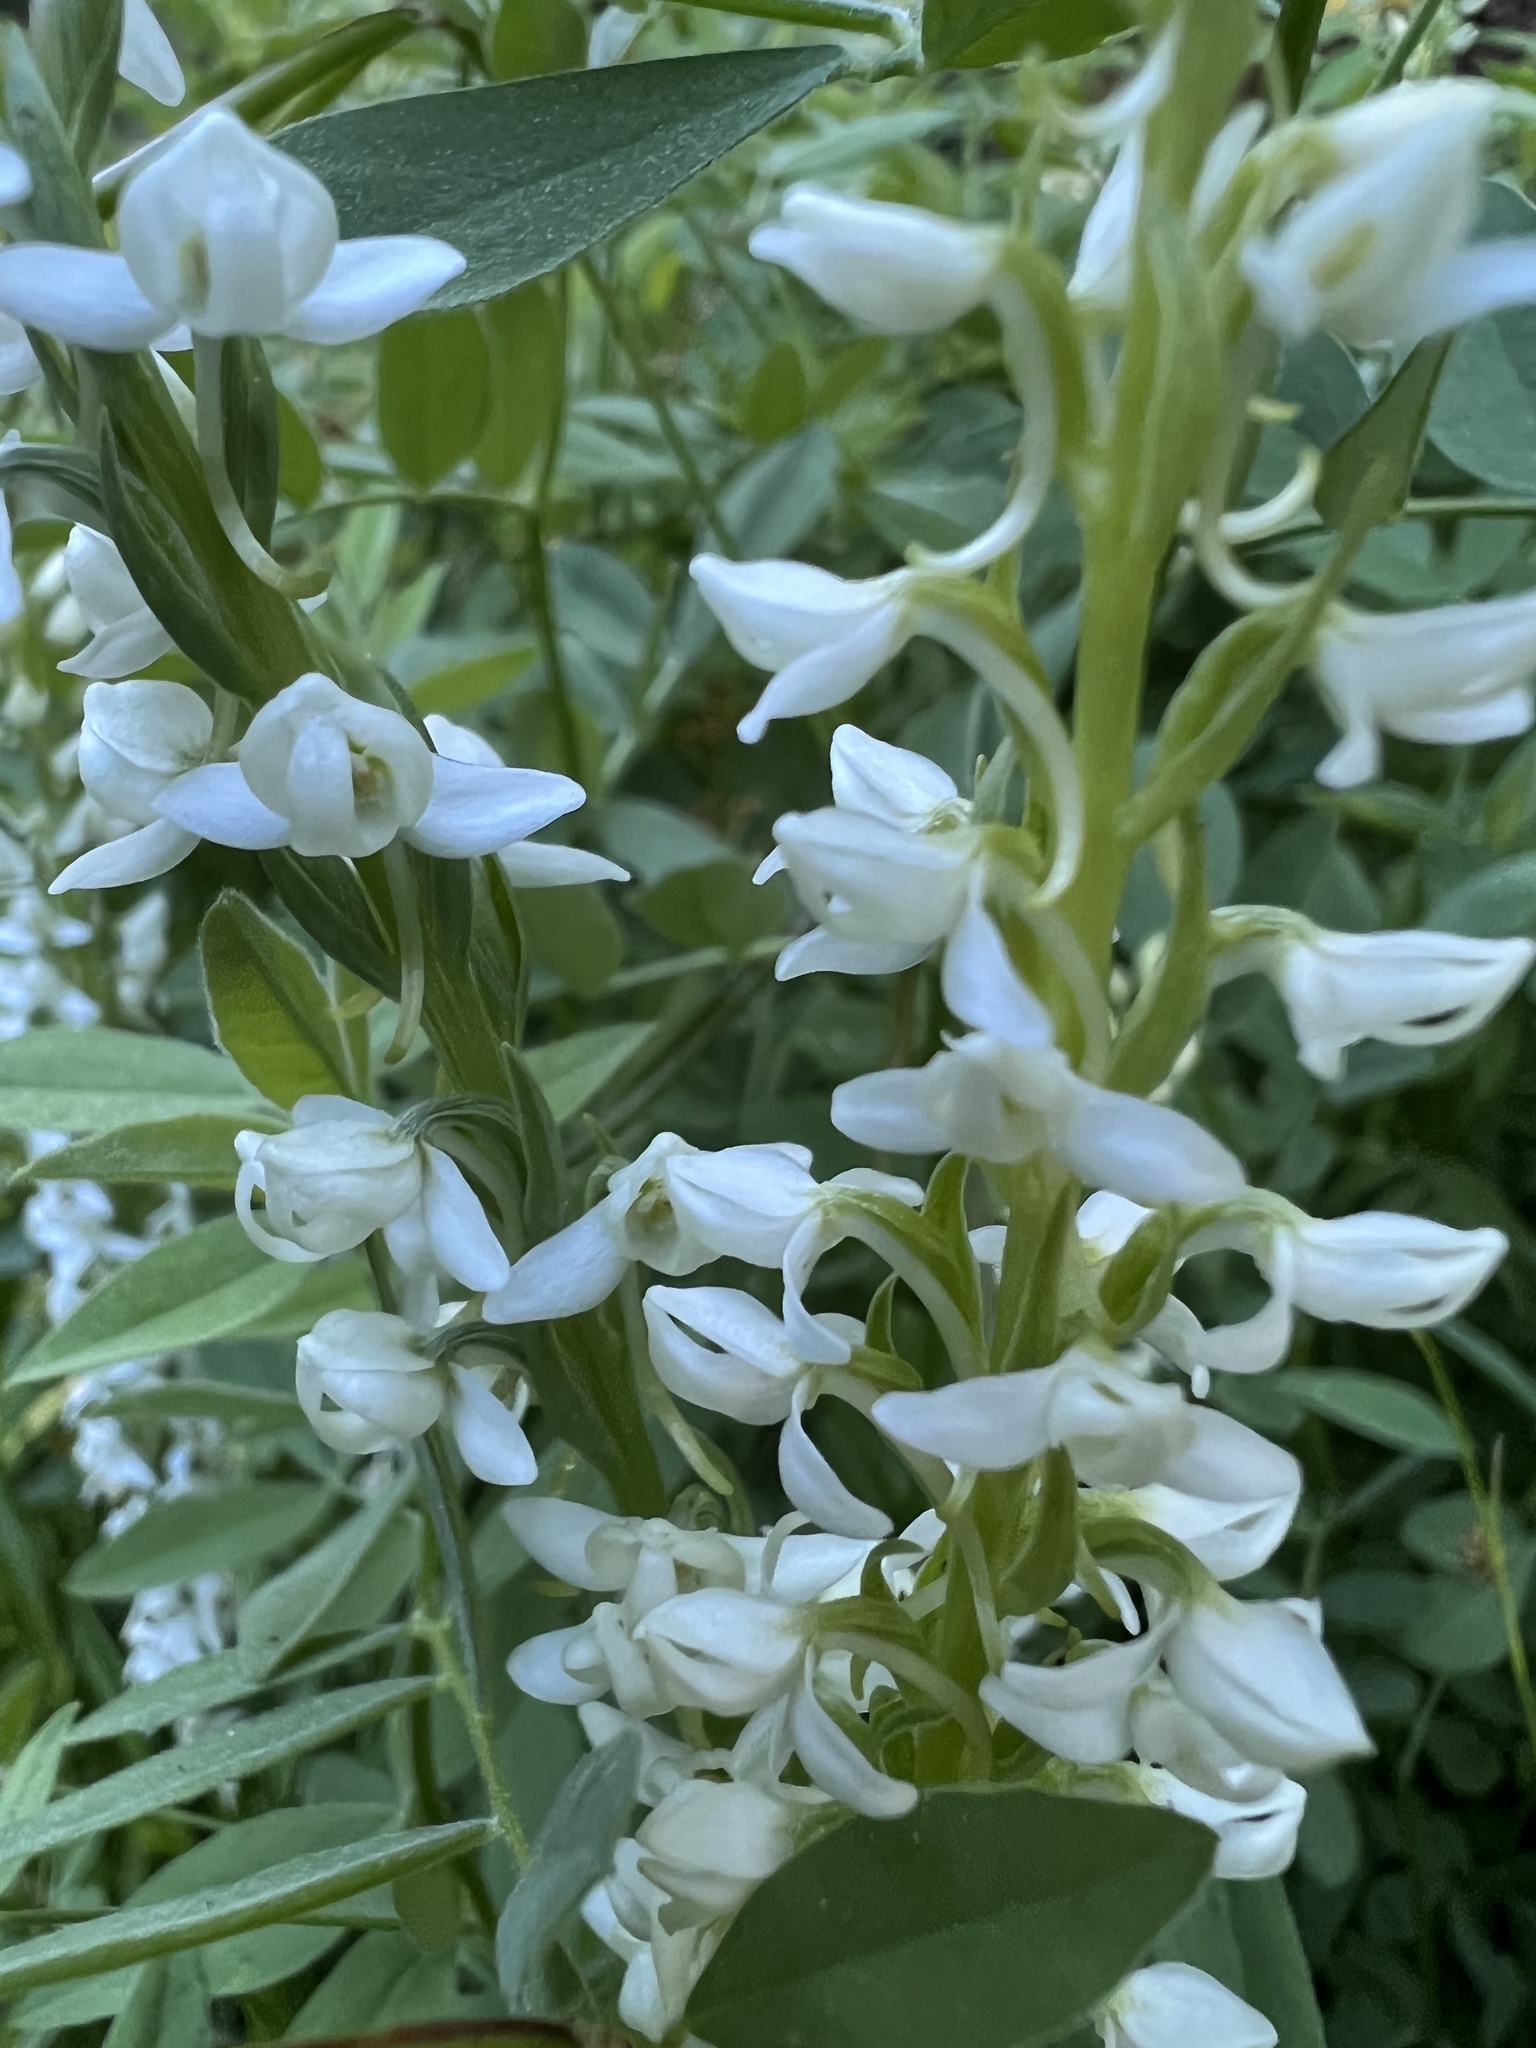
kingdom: Plantae
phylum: Tracheophyta
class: Liliopsida
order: Asparagales
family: Orchidaceae
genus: Platanthera
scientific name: Platanthera dilatata
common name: Bog candles
